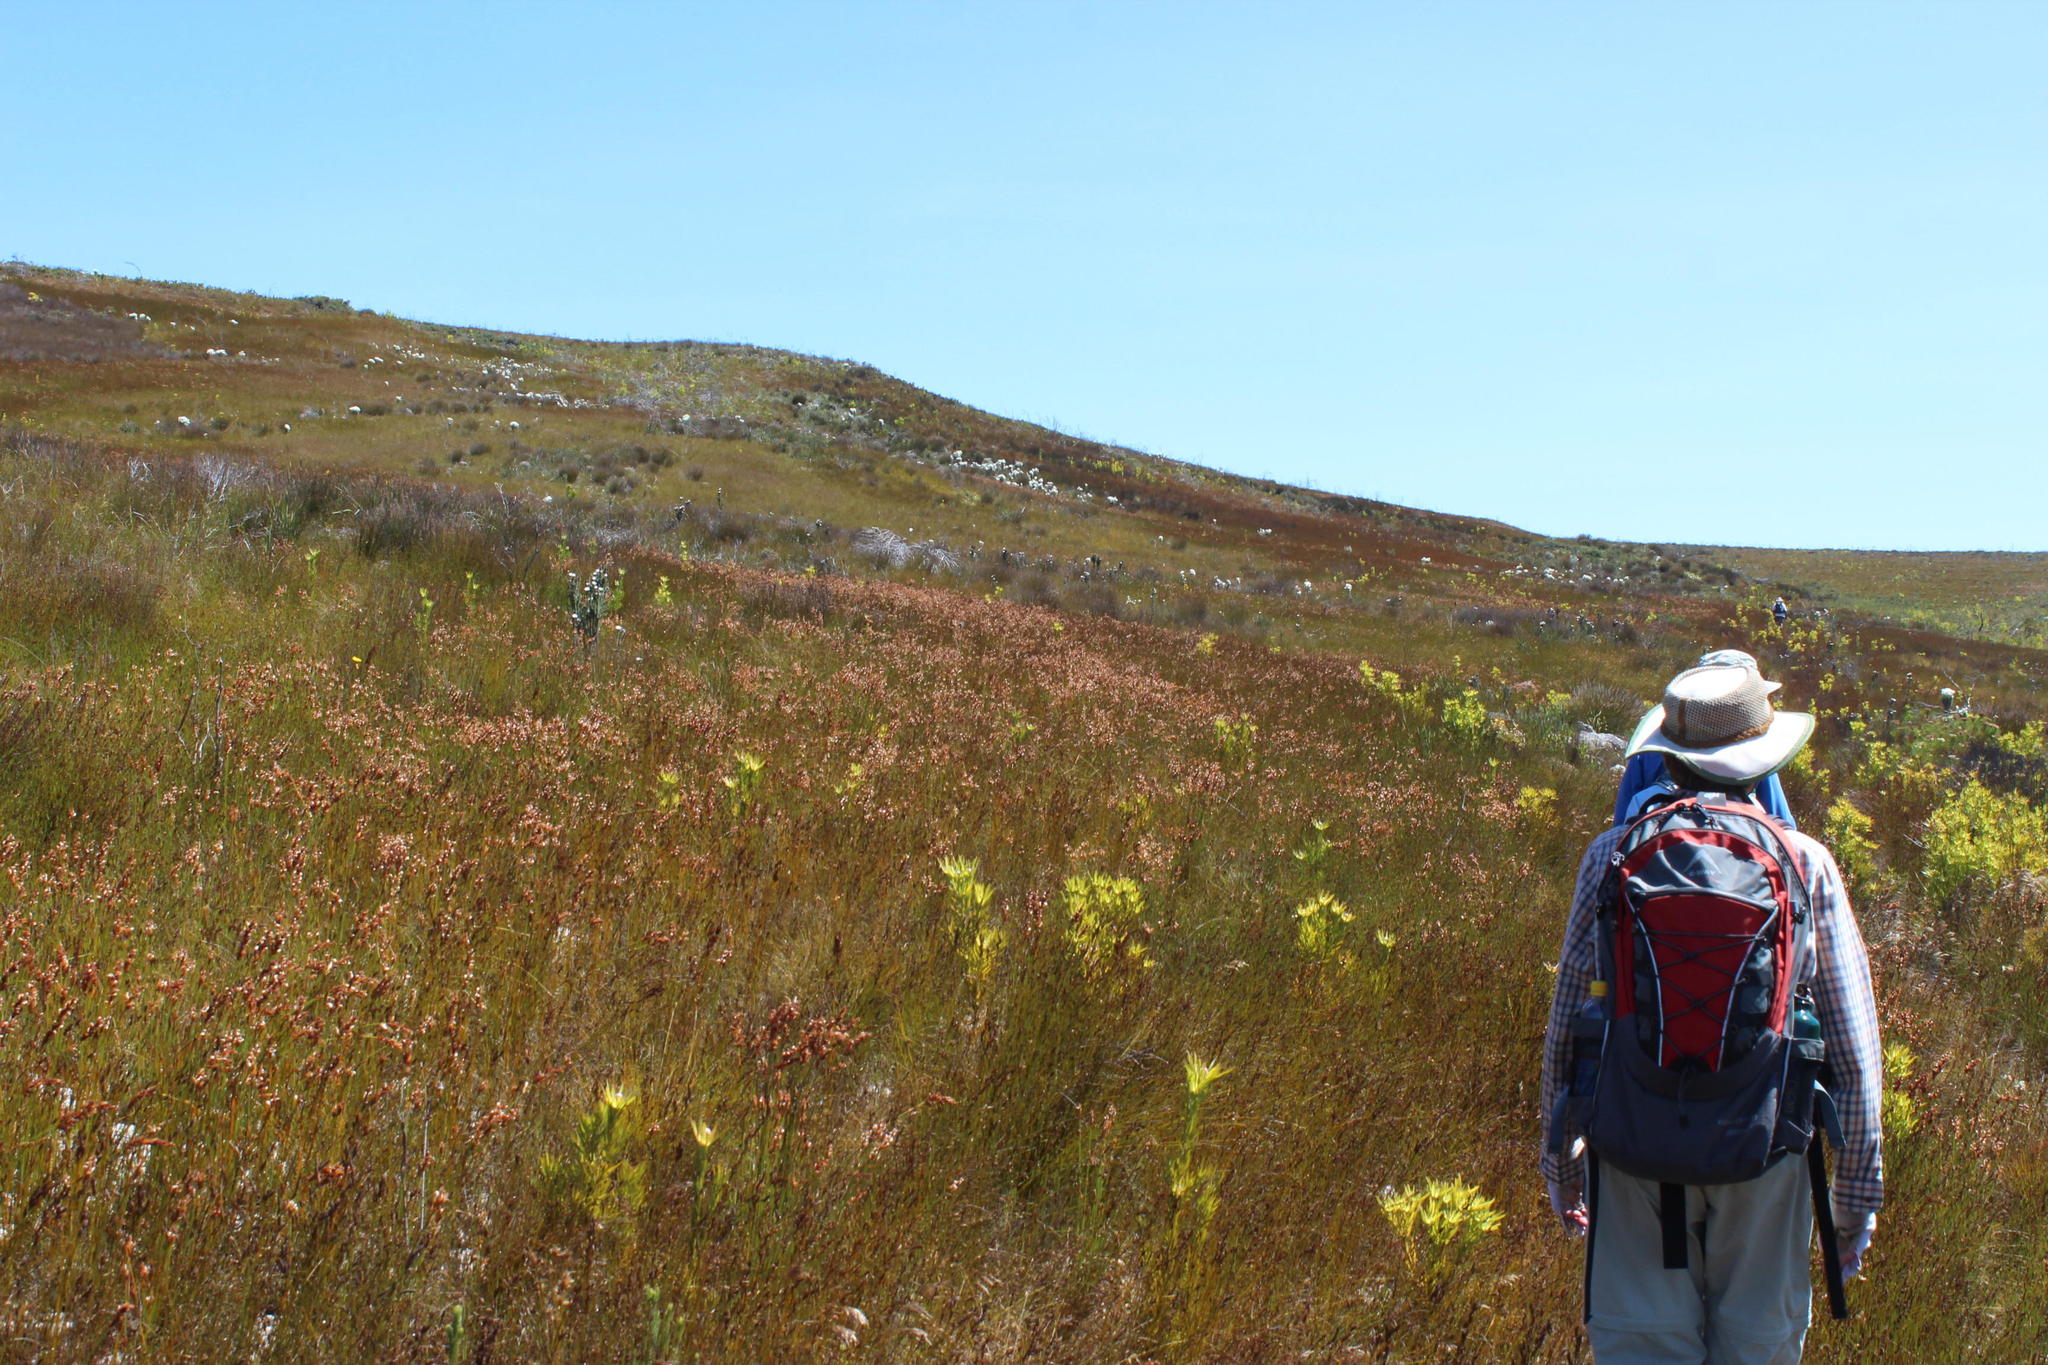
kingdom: Plantae
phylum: Tracheophyta
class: Liliopsida
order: Poales
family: Restionaceae
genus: Elegia
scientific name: Elegia juncea
